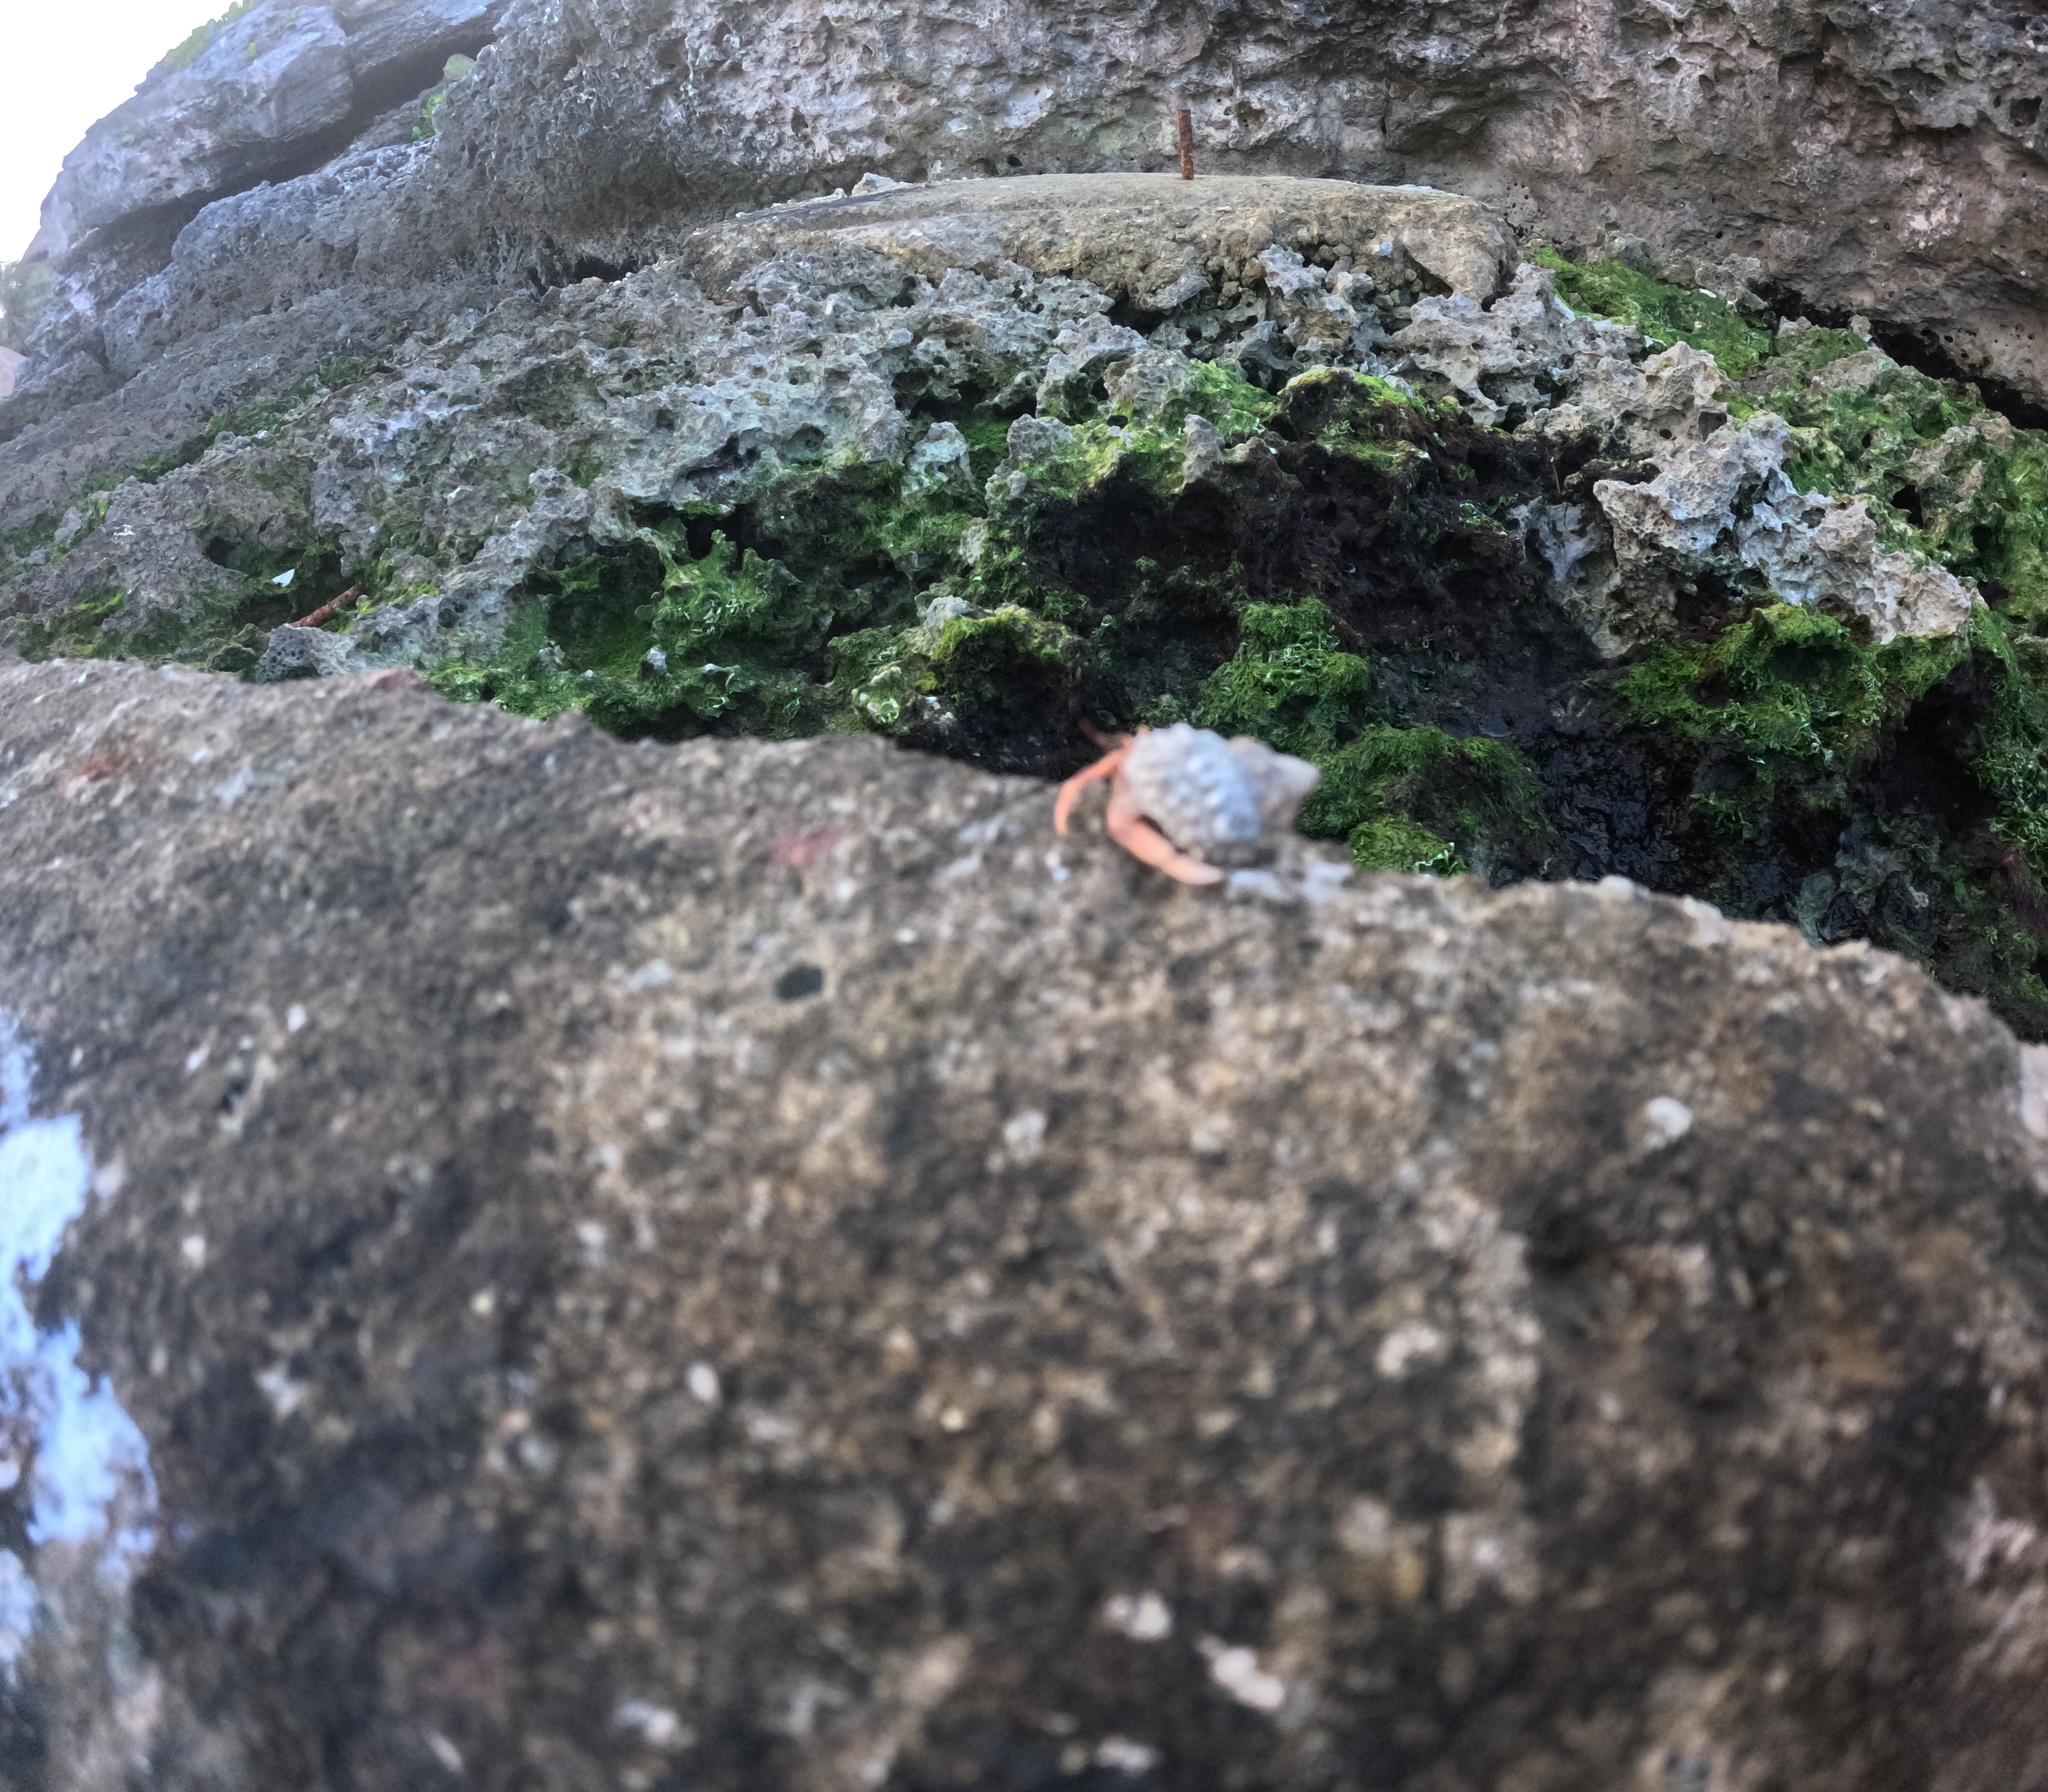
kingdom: Animalia
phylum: Arthropoda
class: Malacostraca
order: Decapoda
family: Coenobitidae
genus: Coenobita
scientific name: Coenobita clypeatus
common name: Caribbean hermit crab
